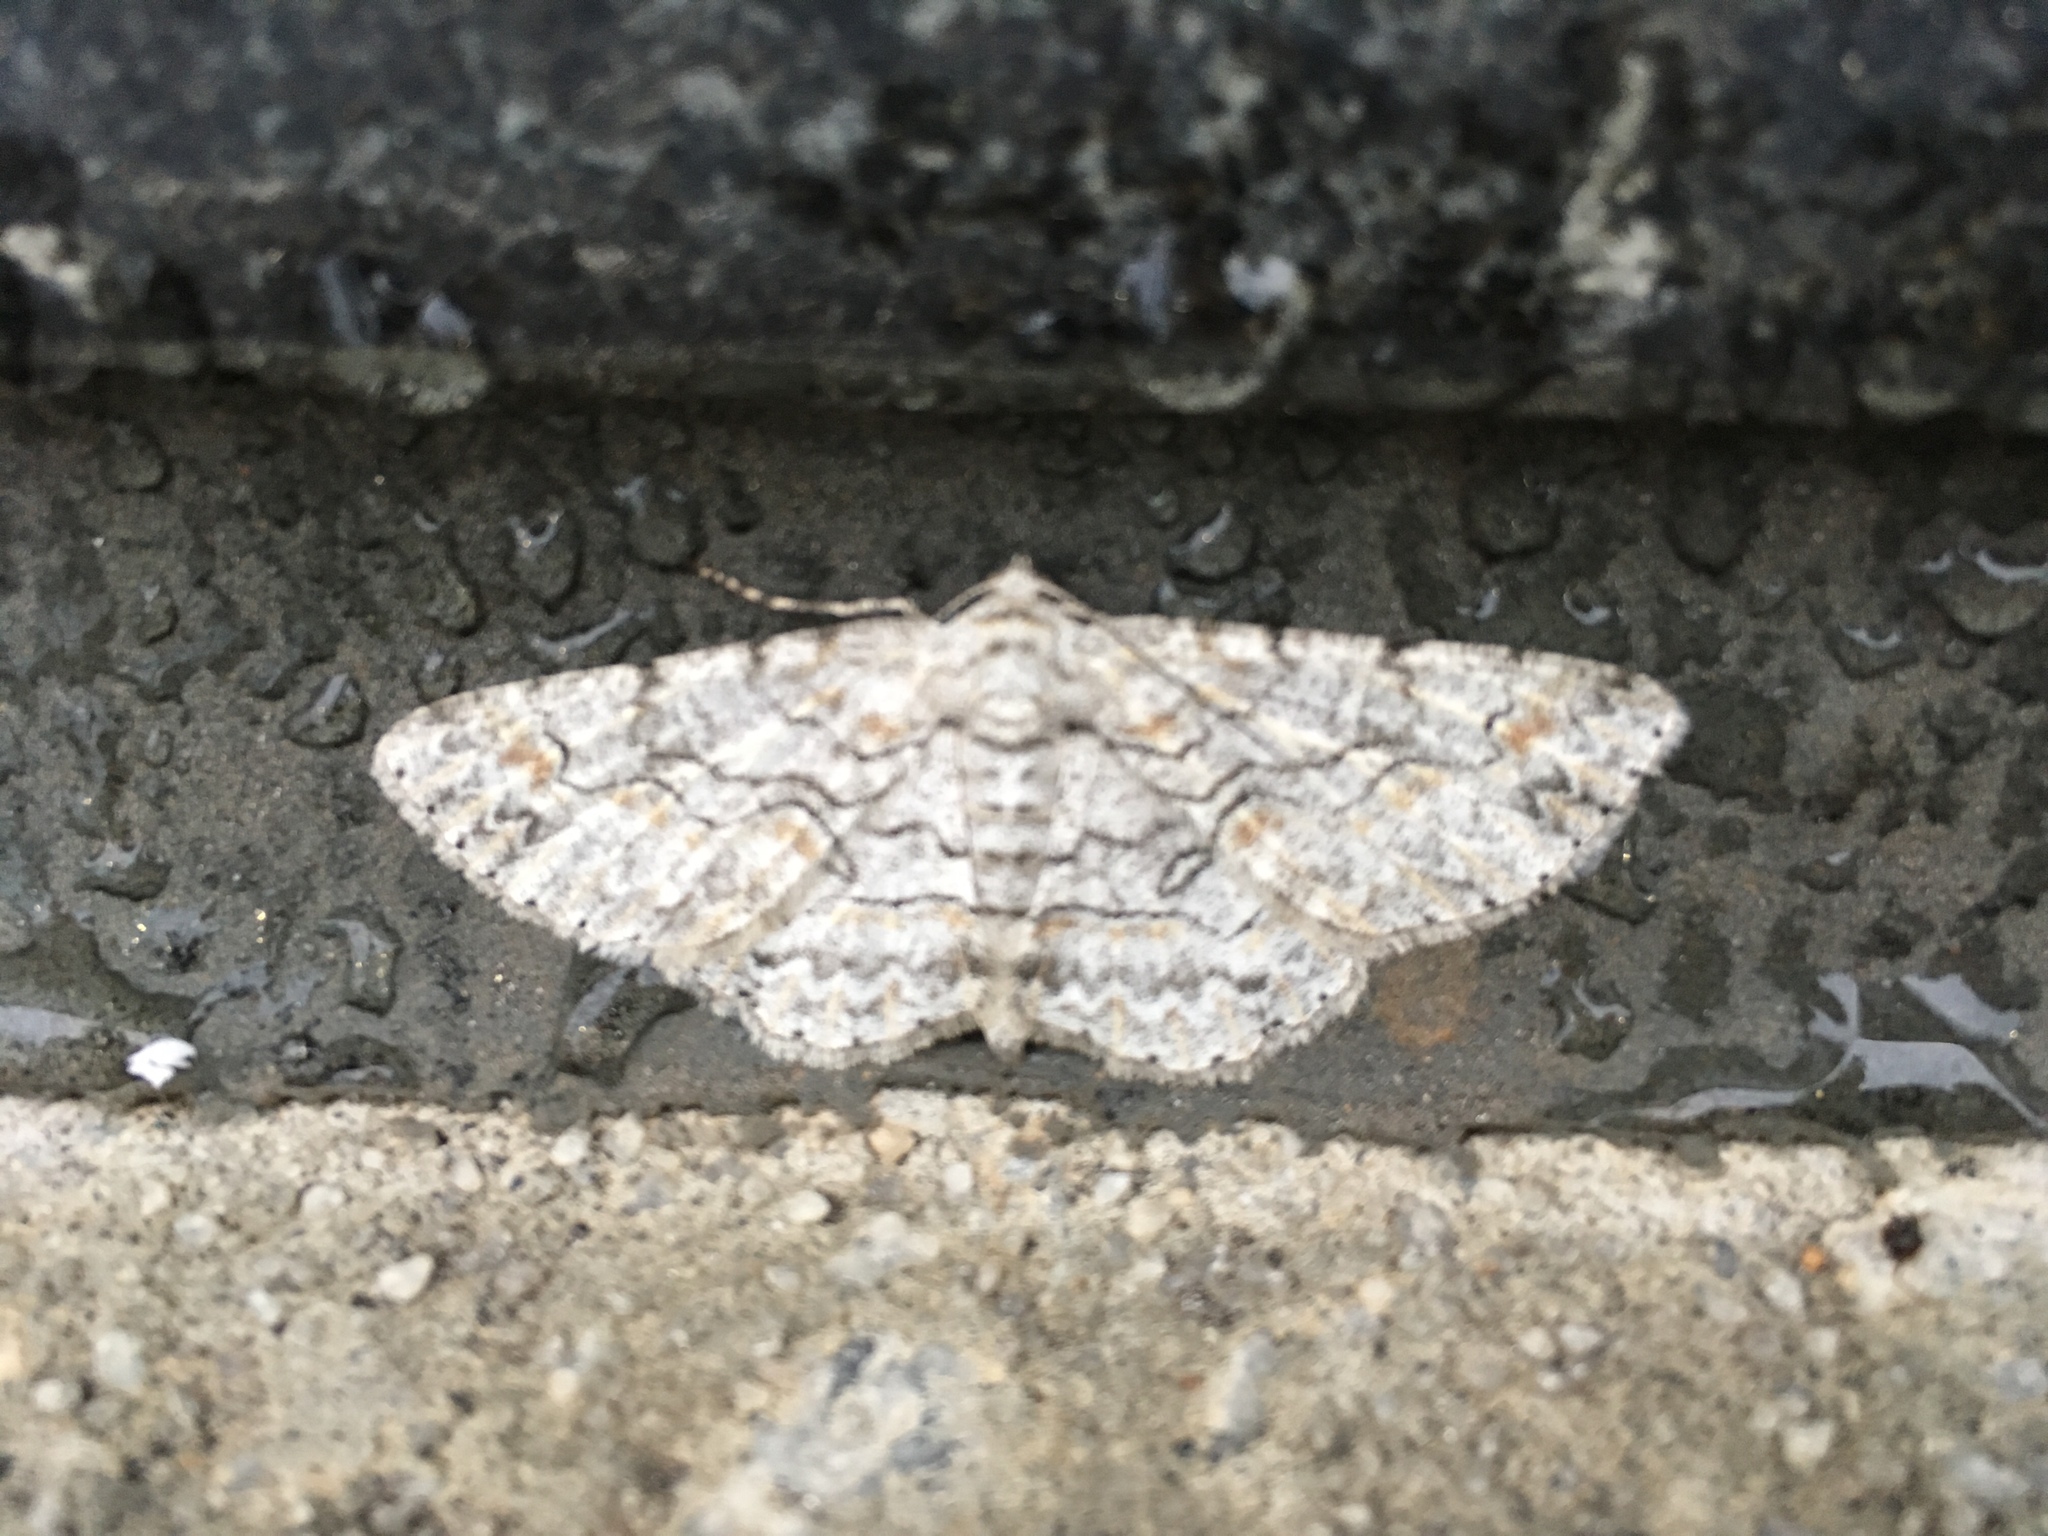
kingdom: Animalia
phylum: Arthropoda
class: Insecta
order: Lepidoptera
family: Geometridae
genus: Iridopsis
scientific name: Iridopsis defectaria
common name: Brown-shaded gray
